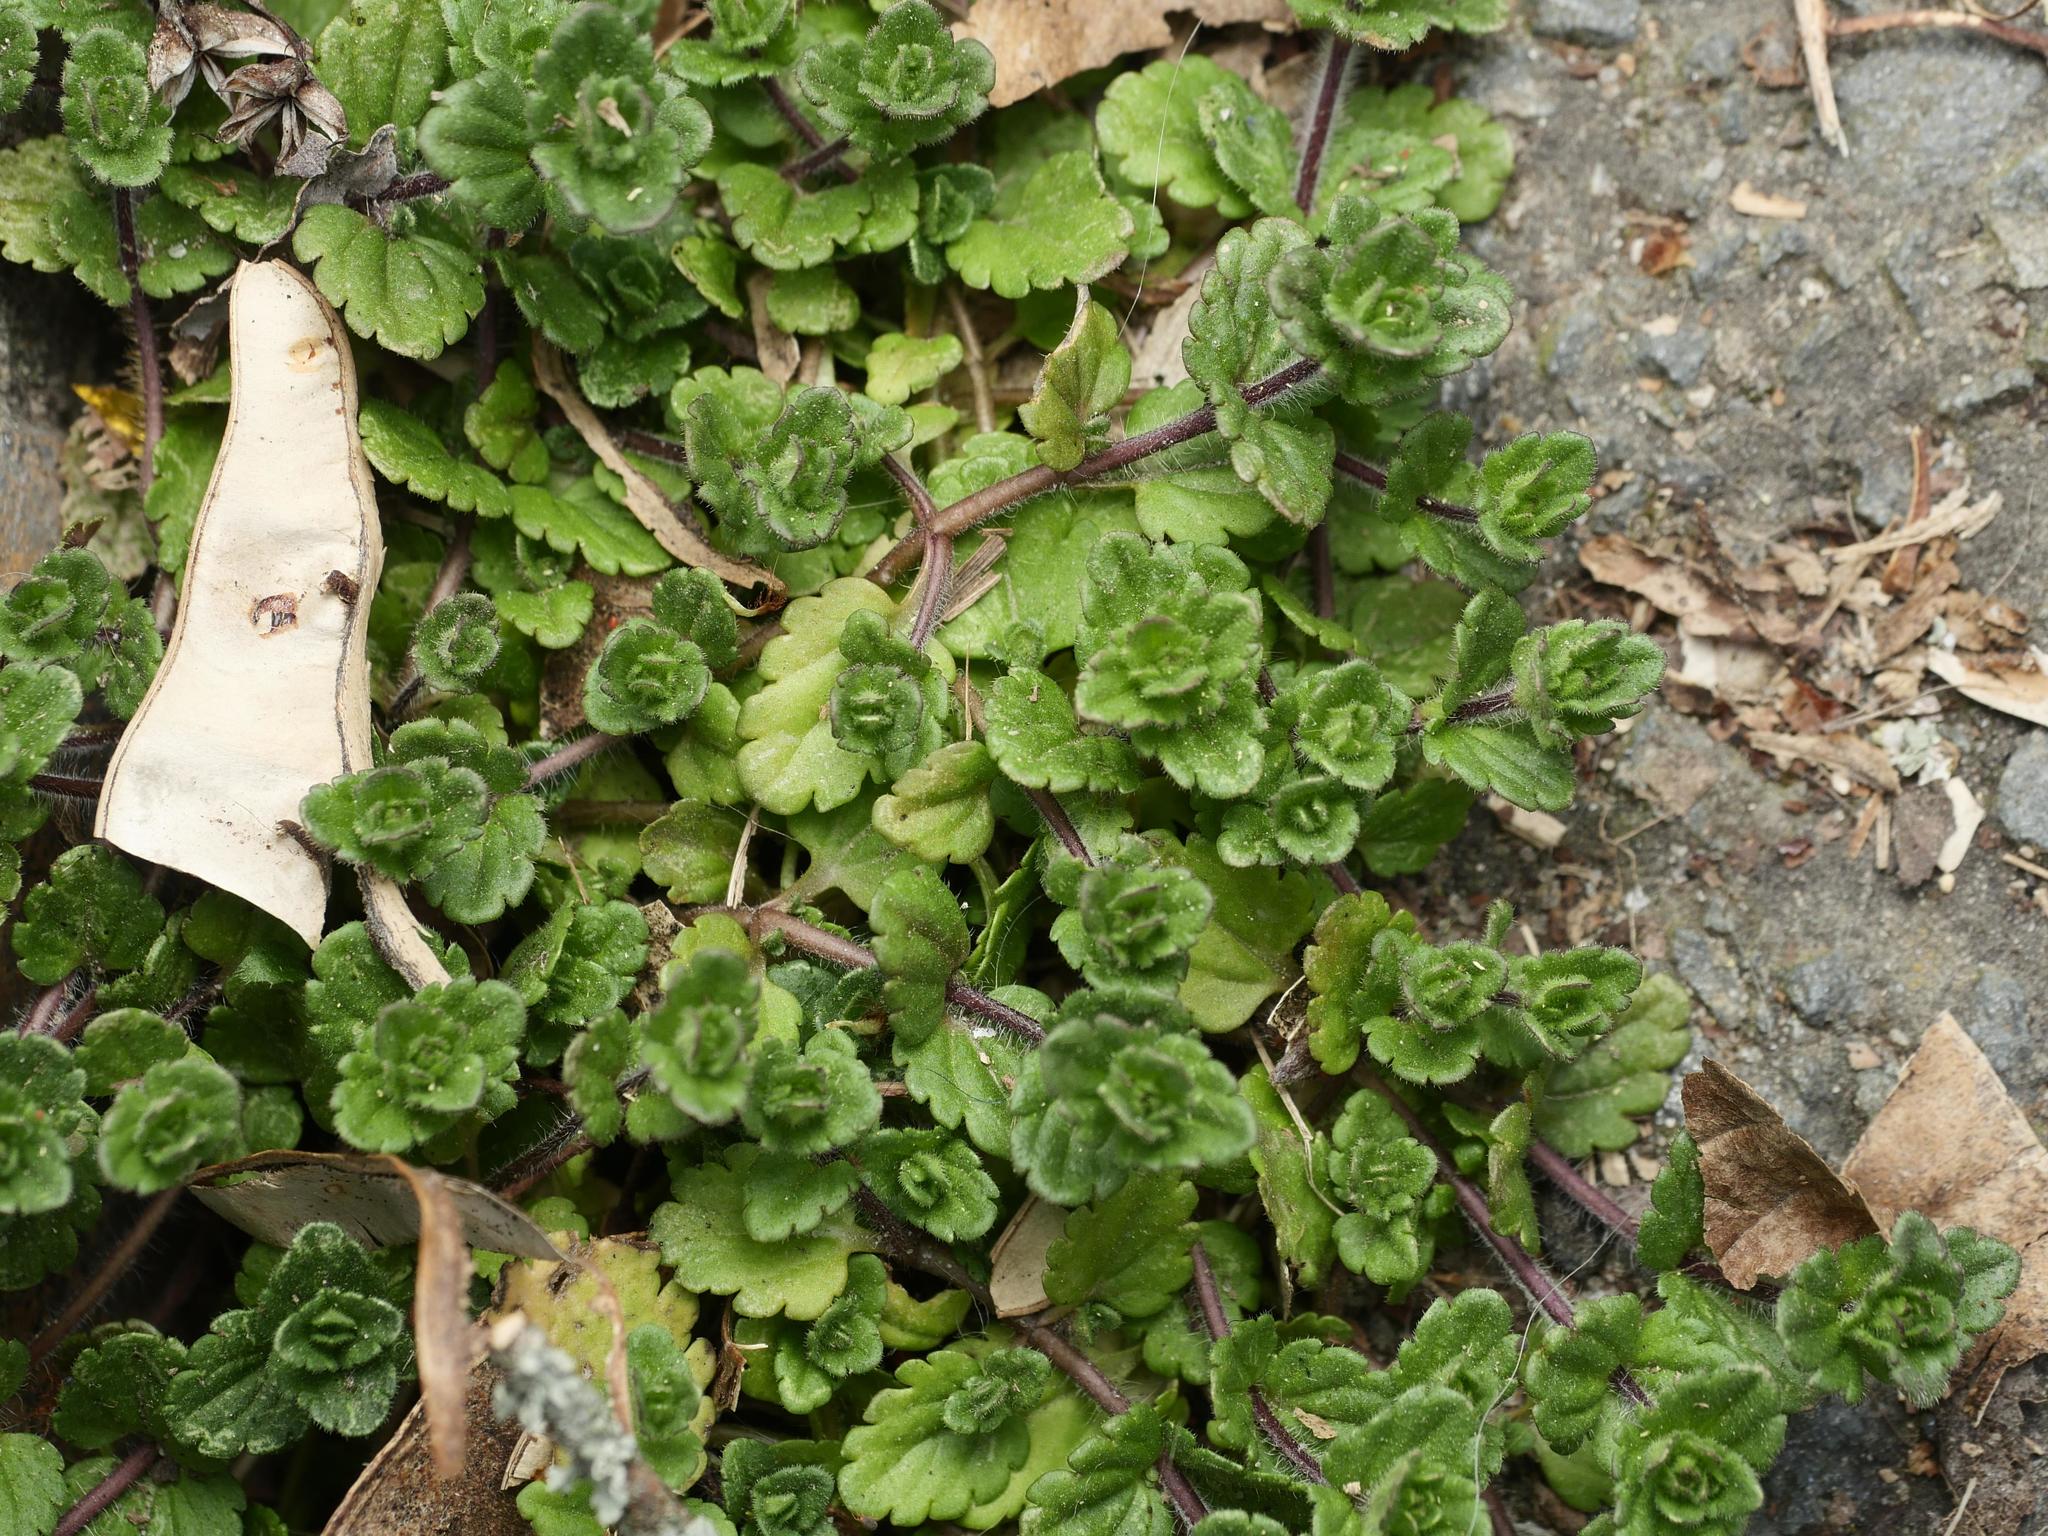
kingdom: Plantae
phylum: Tracheophyta
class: Magnoliopsida
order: Lamiales
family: Plantaginaceae
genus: Veronica
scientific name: Veronica arvensis
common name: Corn speedwell
